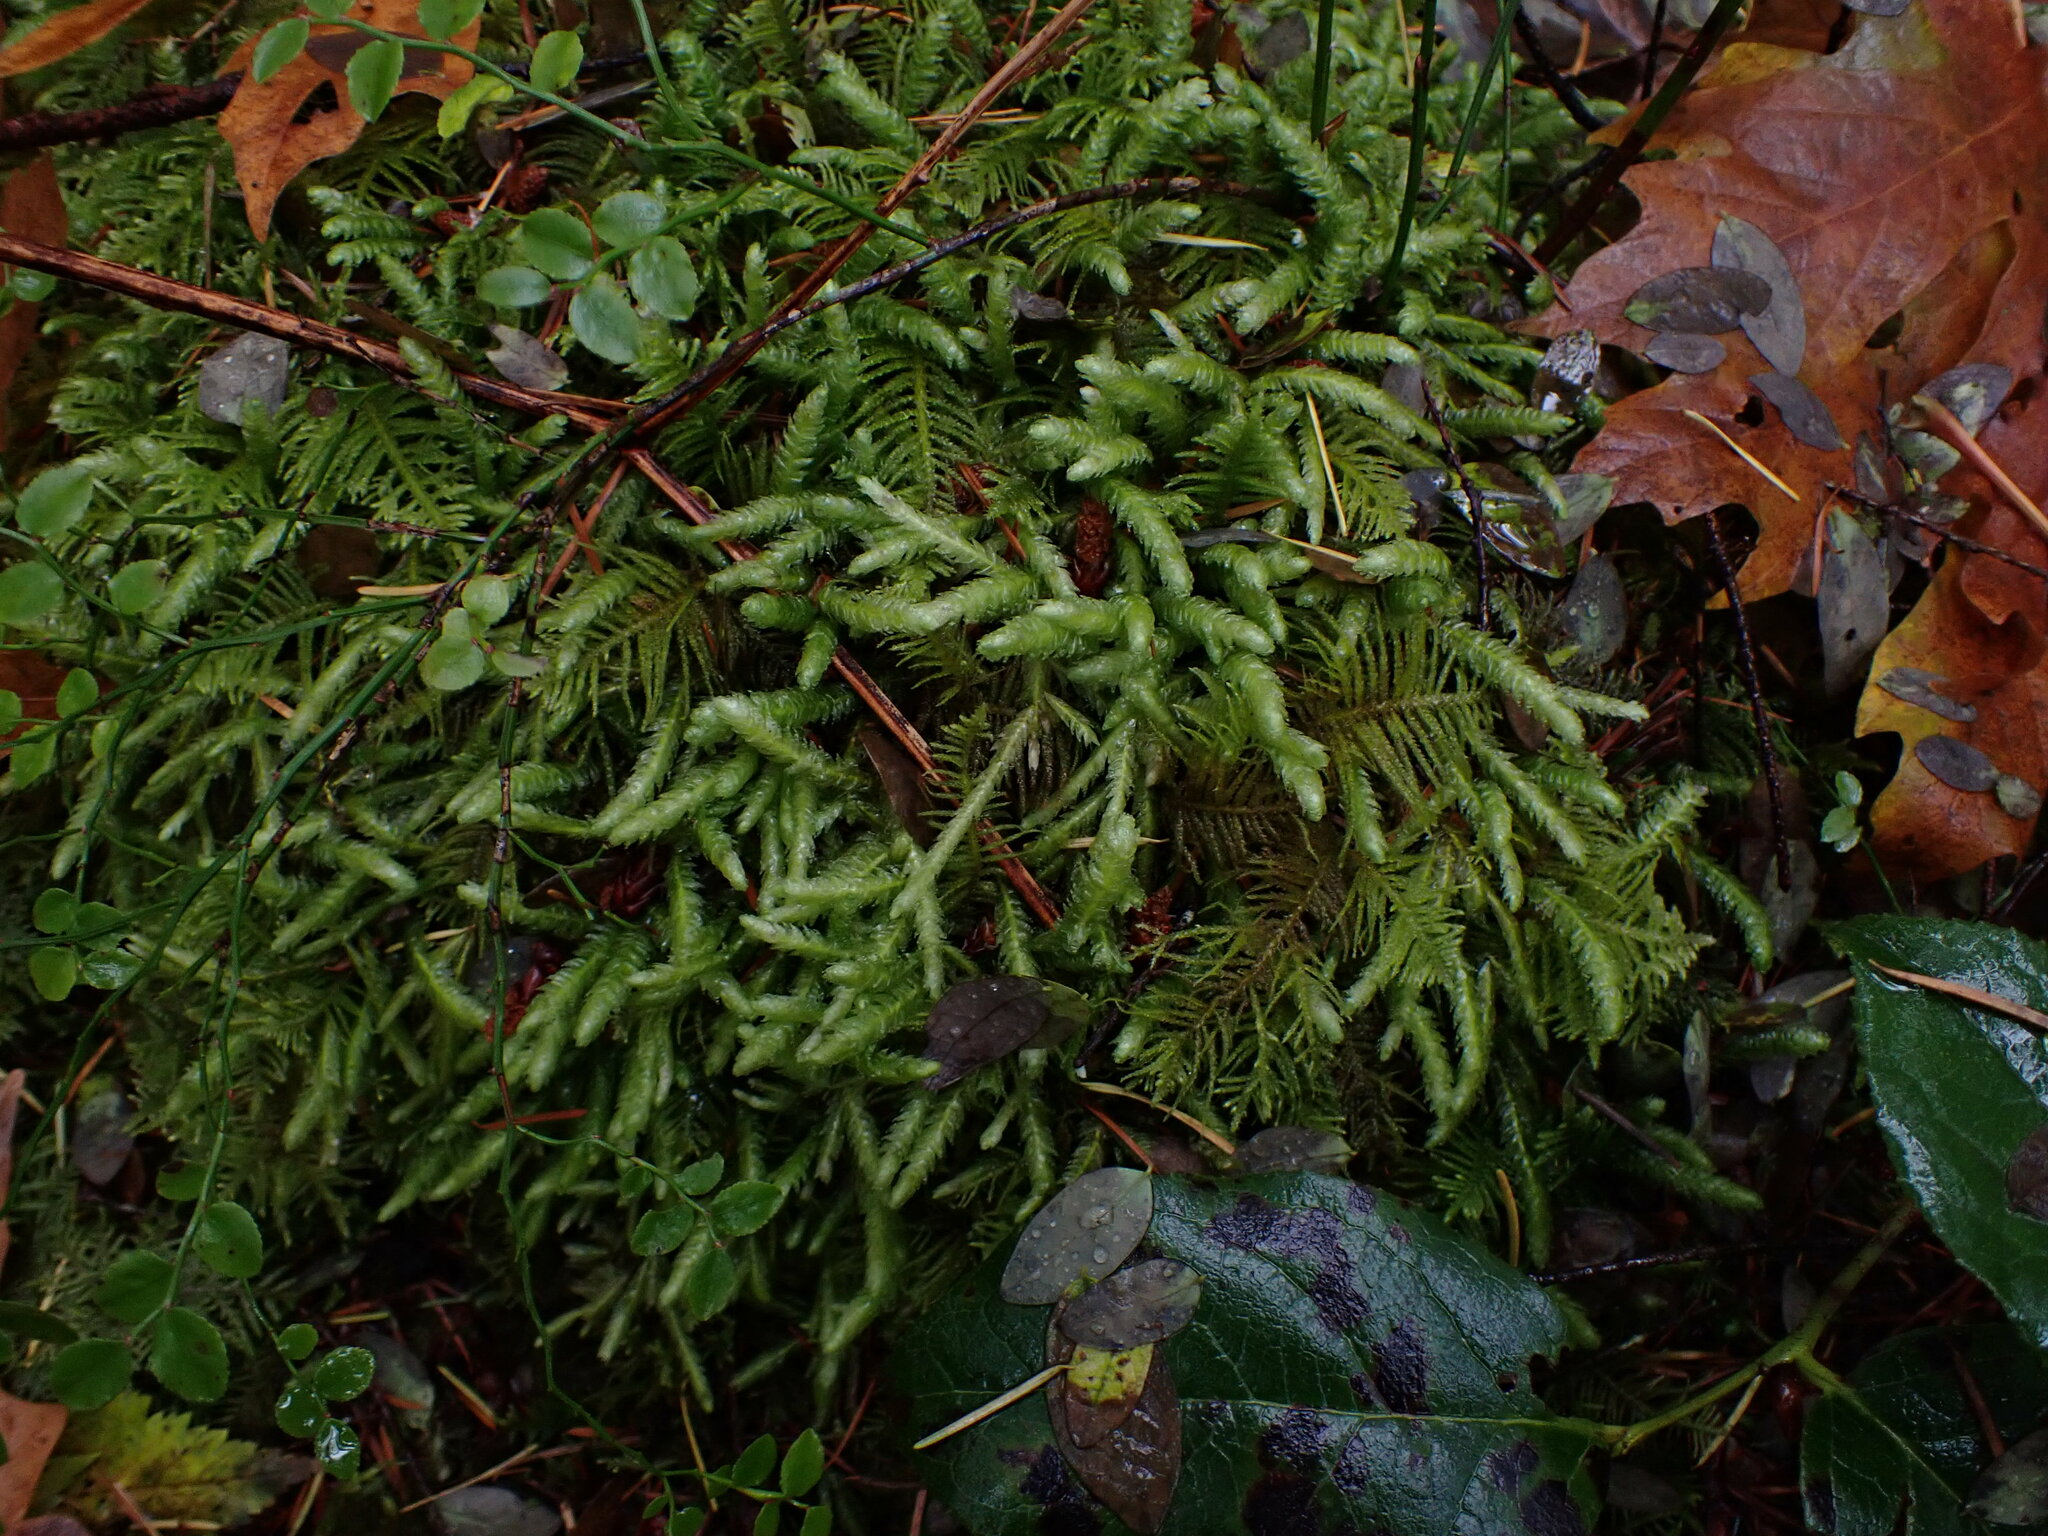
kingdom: Plantae
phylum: Bryophyta
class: Bryopsida
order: Hypnales
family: Plagiotheciaceae
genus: Plagiothecium
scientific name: Plagiothecium undulatum
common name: Waved silk-moss
